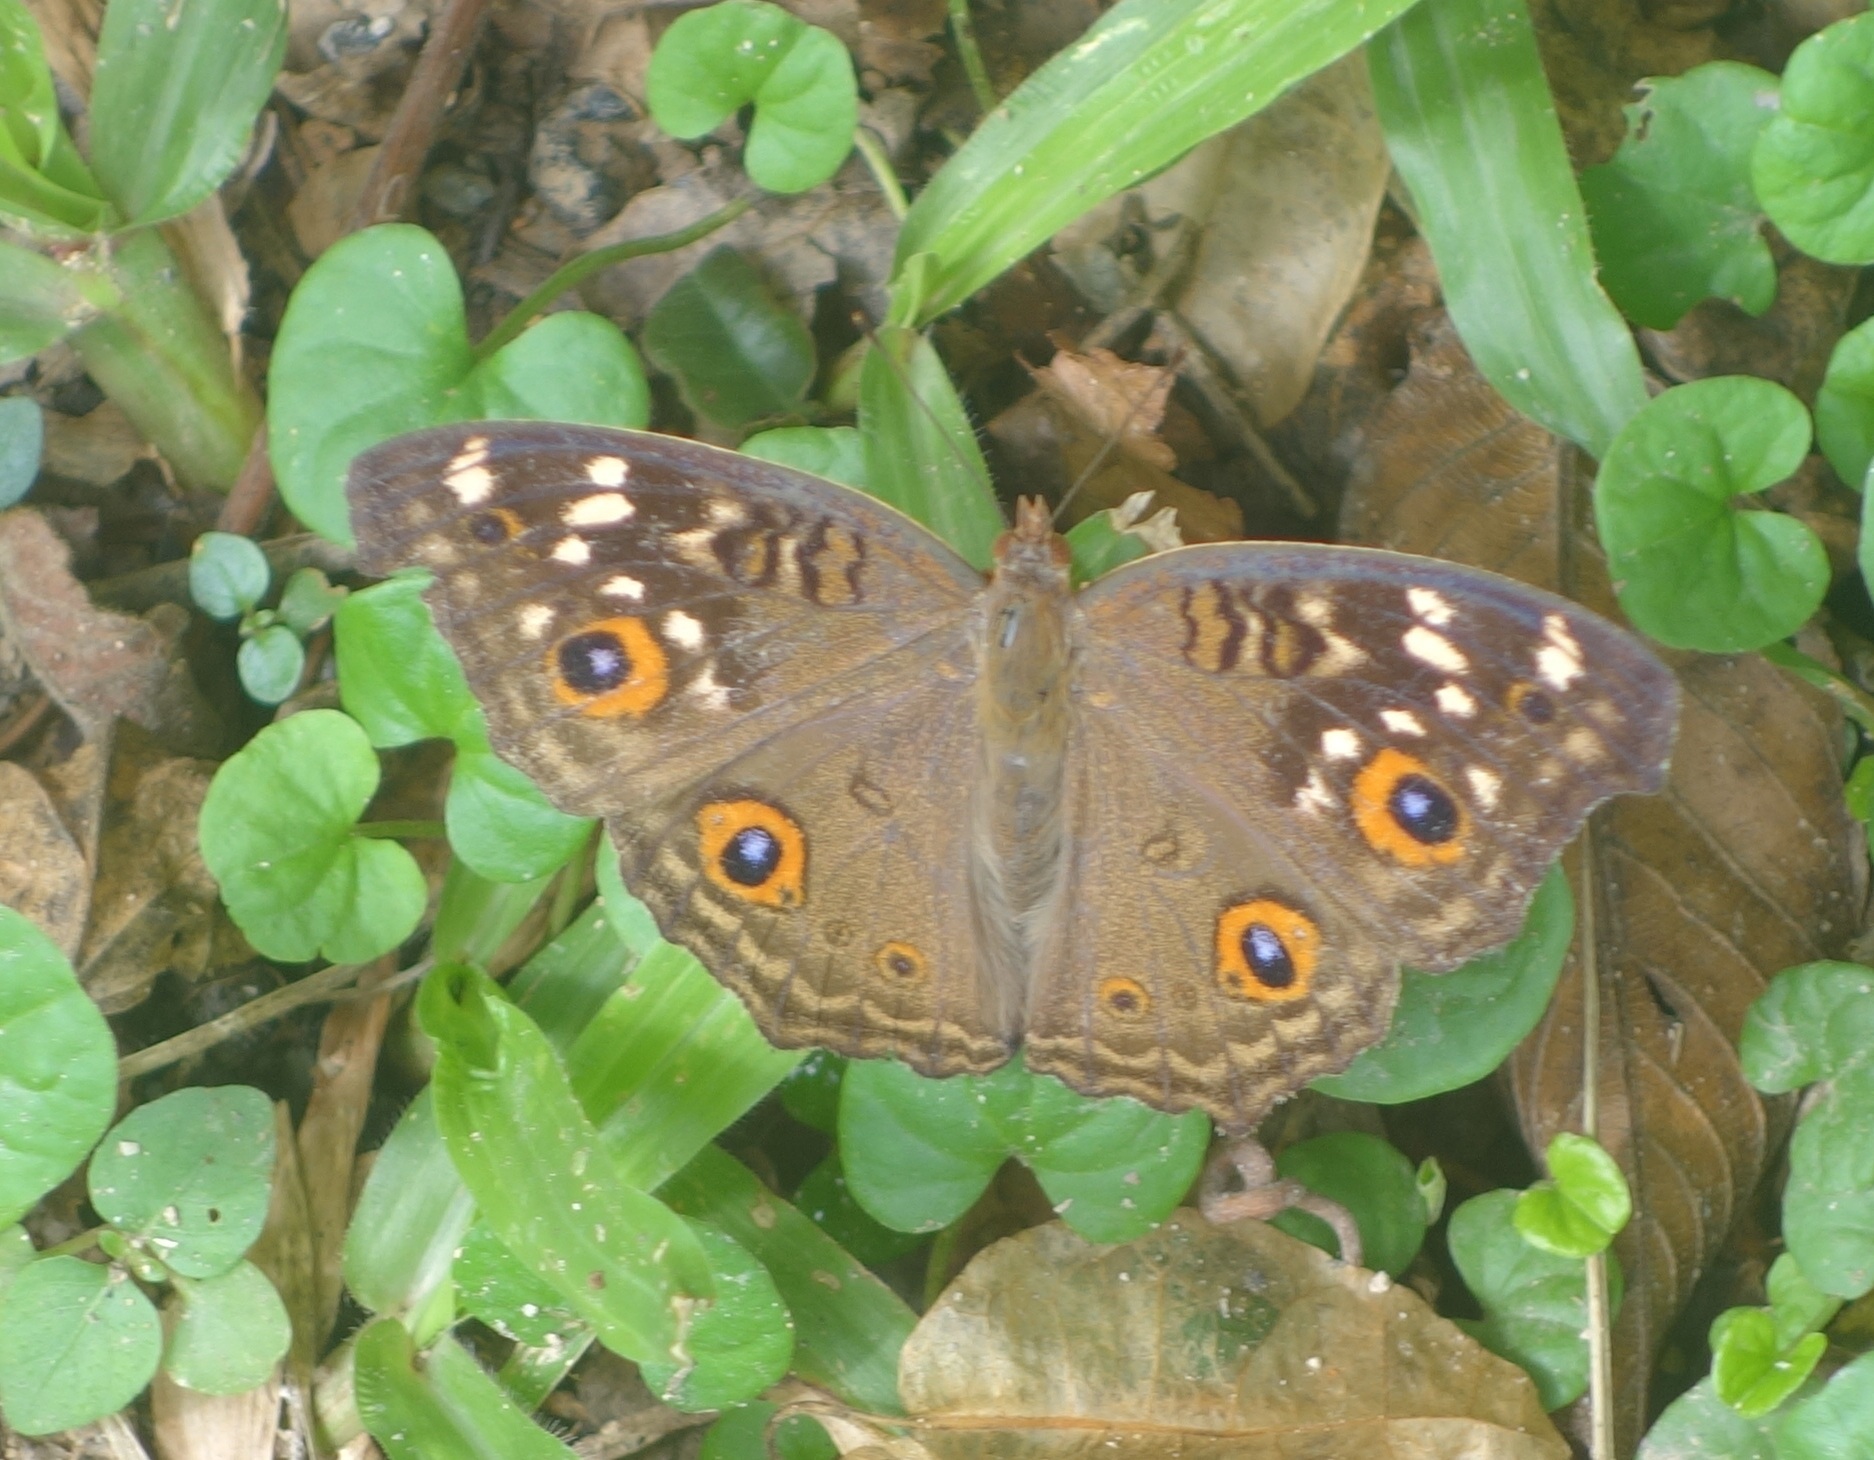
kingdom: Animalia
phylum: Arthropoda
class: Insecta
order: Lepidoptera
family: Nymphalidae
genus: Junonia
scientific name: Junonia lemonias
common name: Lemon pansy
